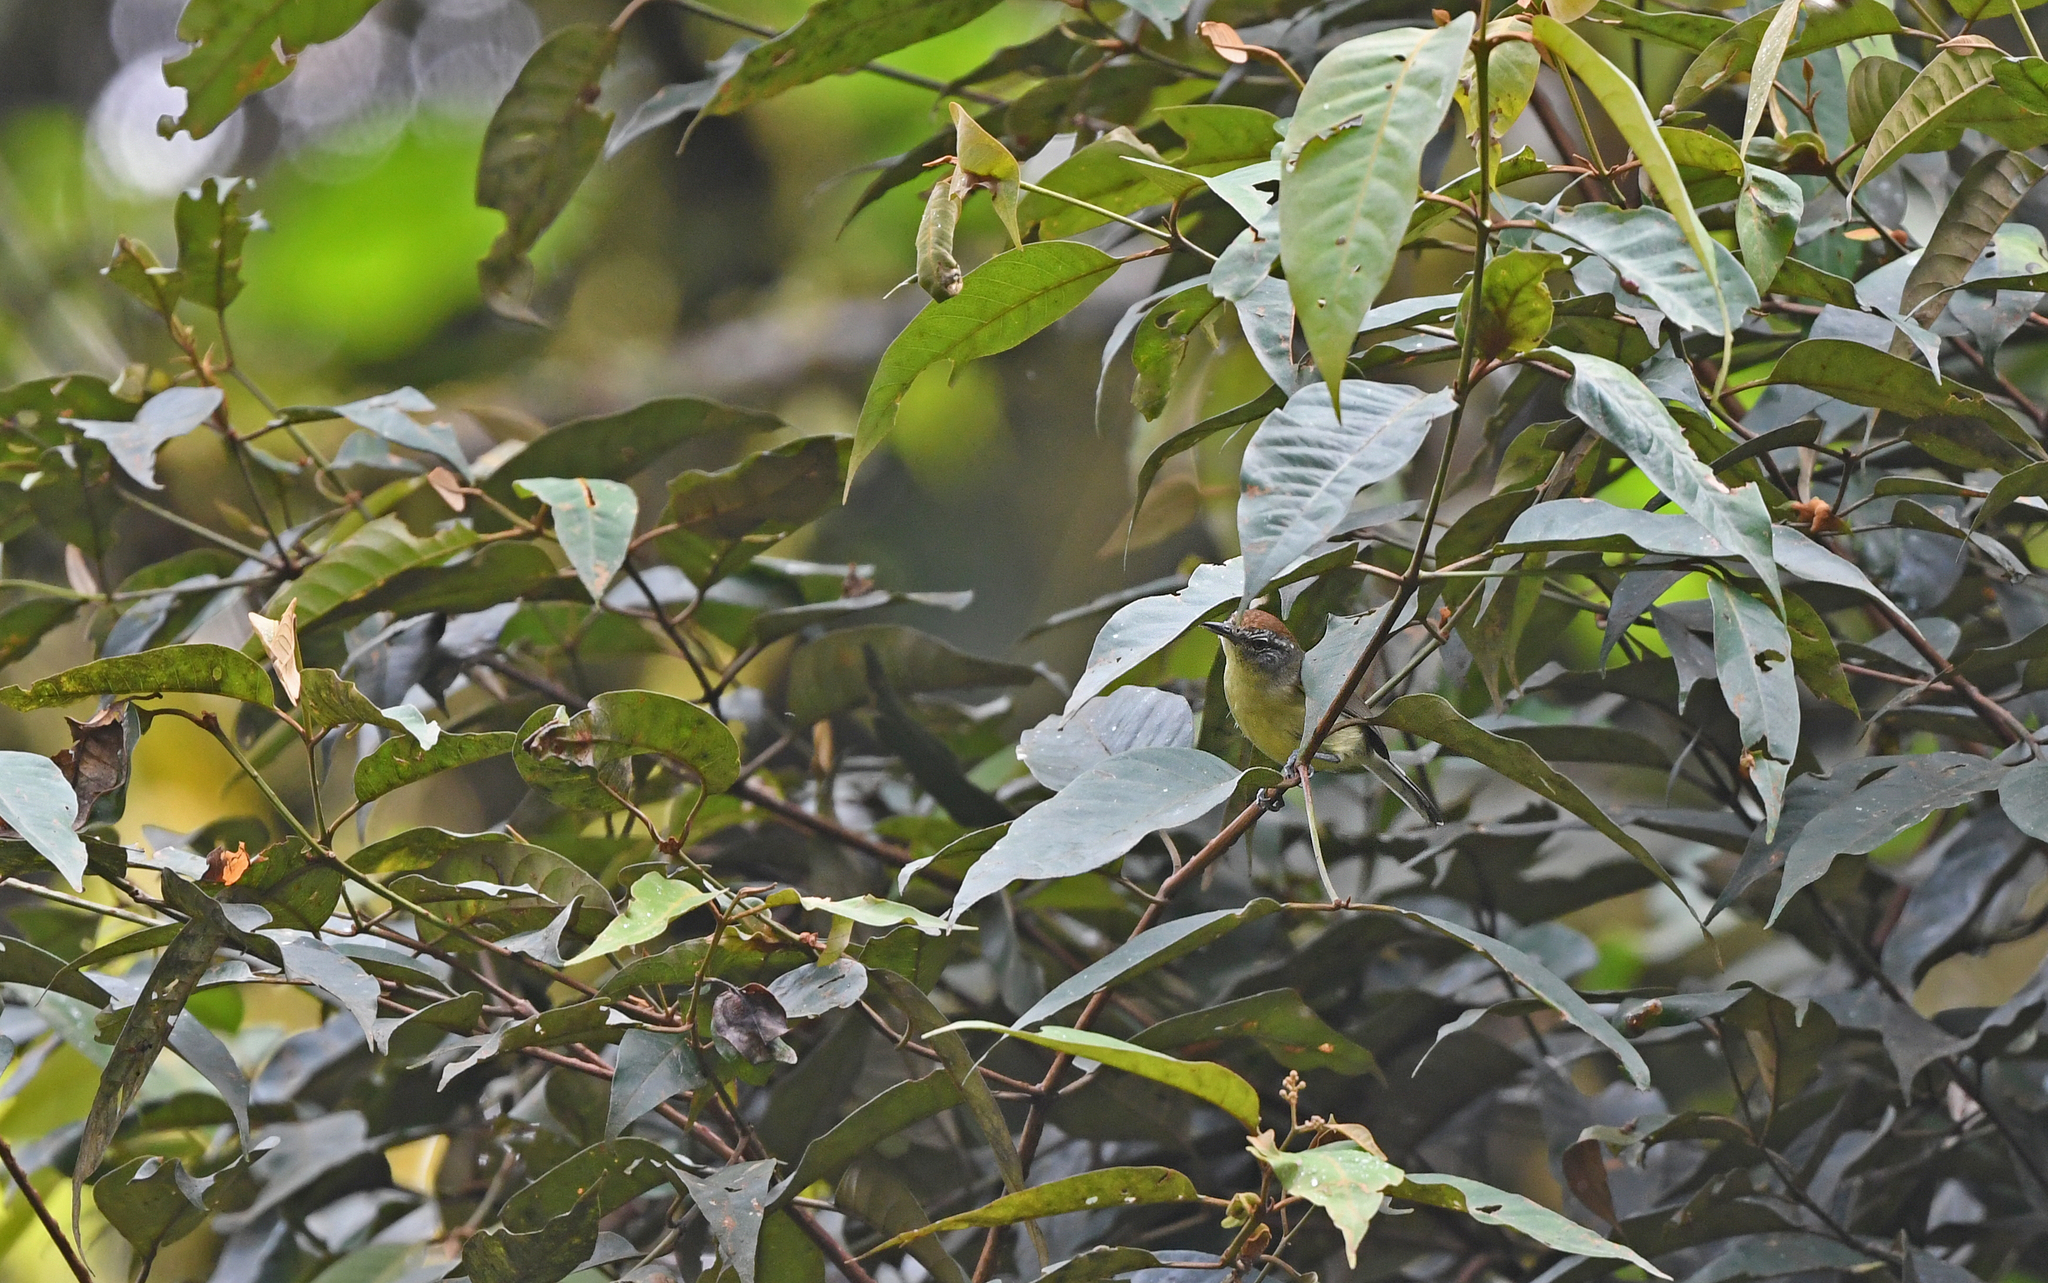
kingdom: Animalia
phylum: Chordata
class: Aves
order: Passeriformes
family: Thamnophilidae
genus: Herpsilochmus
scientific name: Herpsilochmus axillaris
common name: Yellow-breasted antwren
